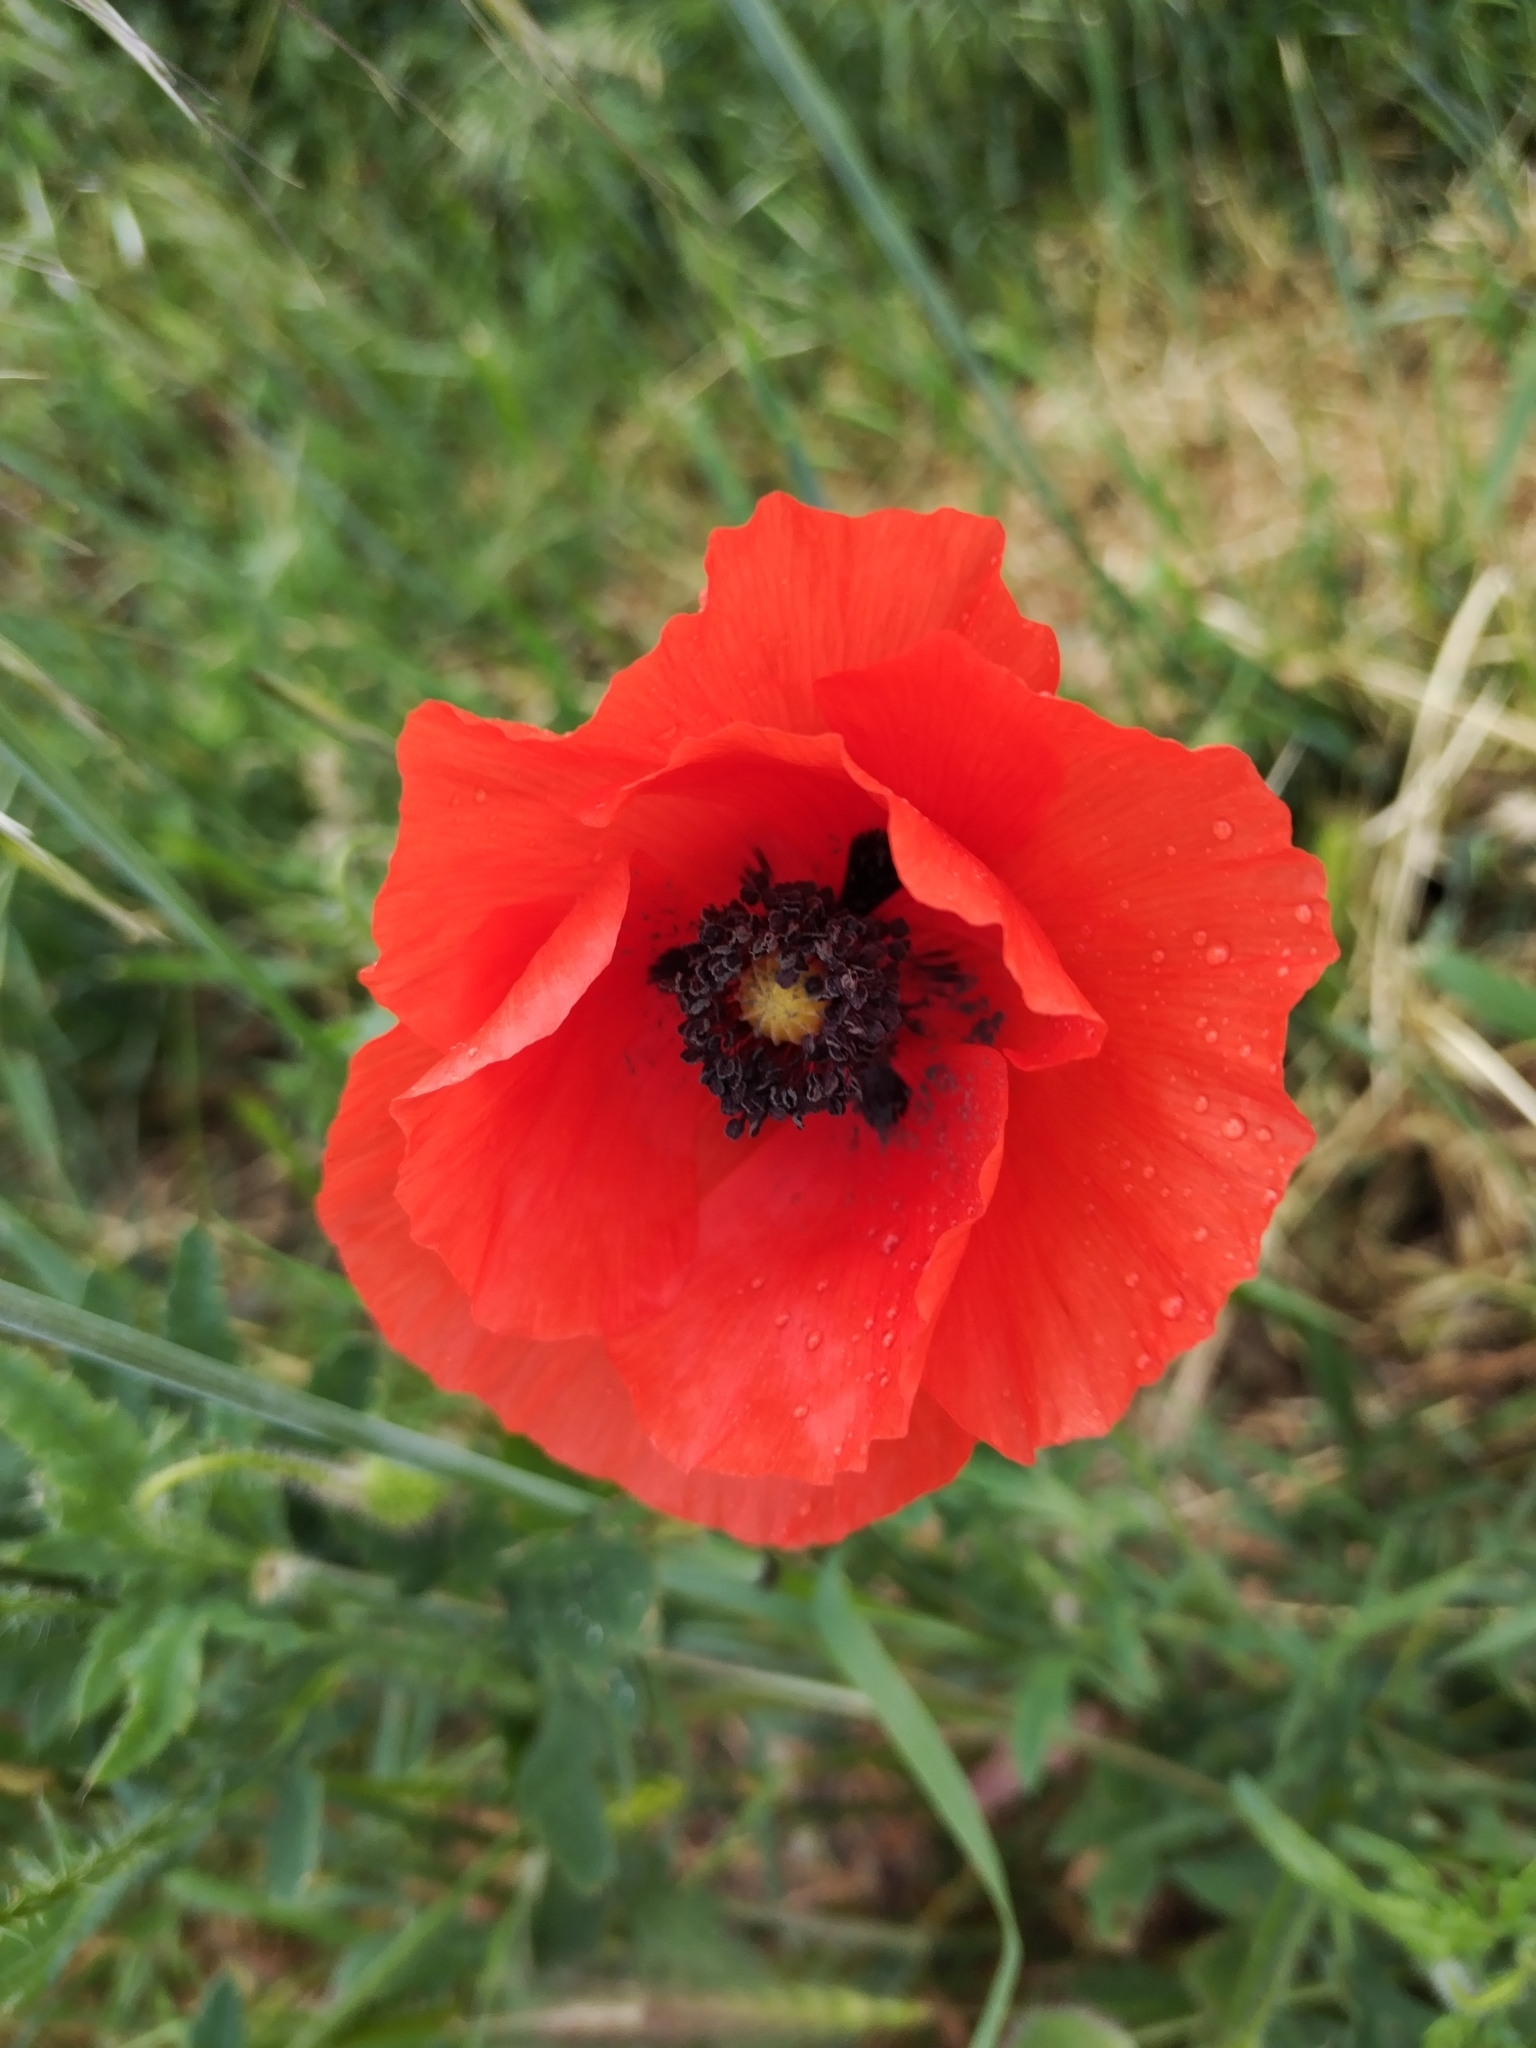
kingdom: Plantae
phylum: Tracheophyta
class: Magnoliopsida
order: Ranunculales
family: Papaveraceae
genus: Papaver
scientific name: Papaver rhoeas
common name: Corn poppy
